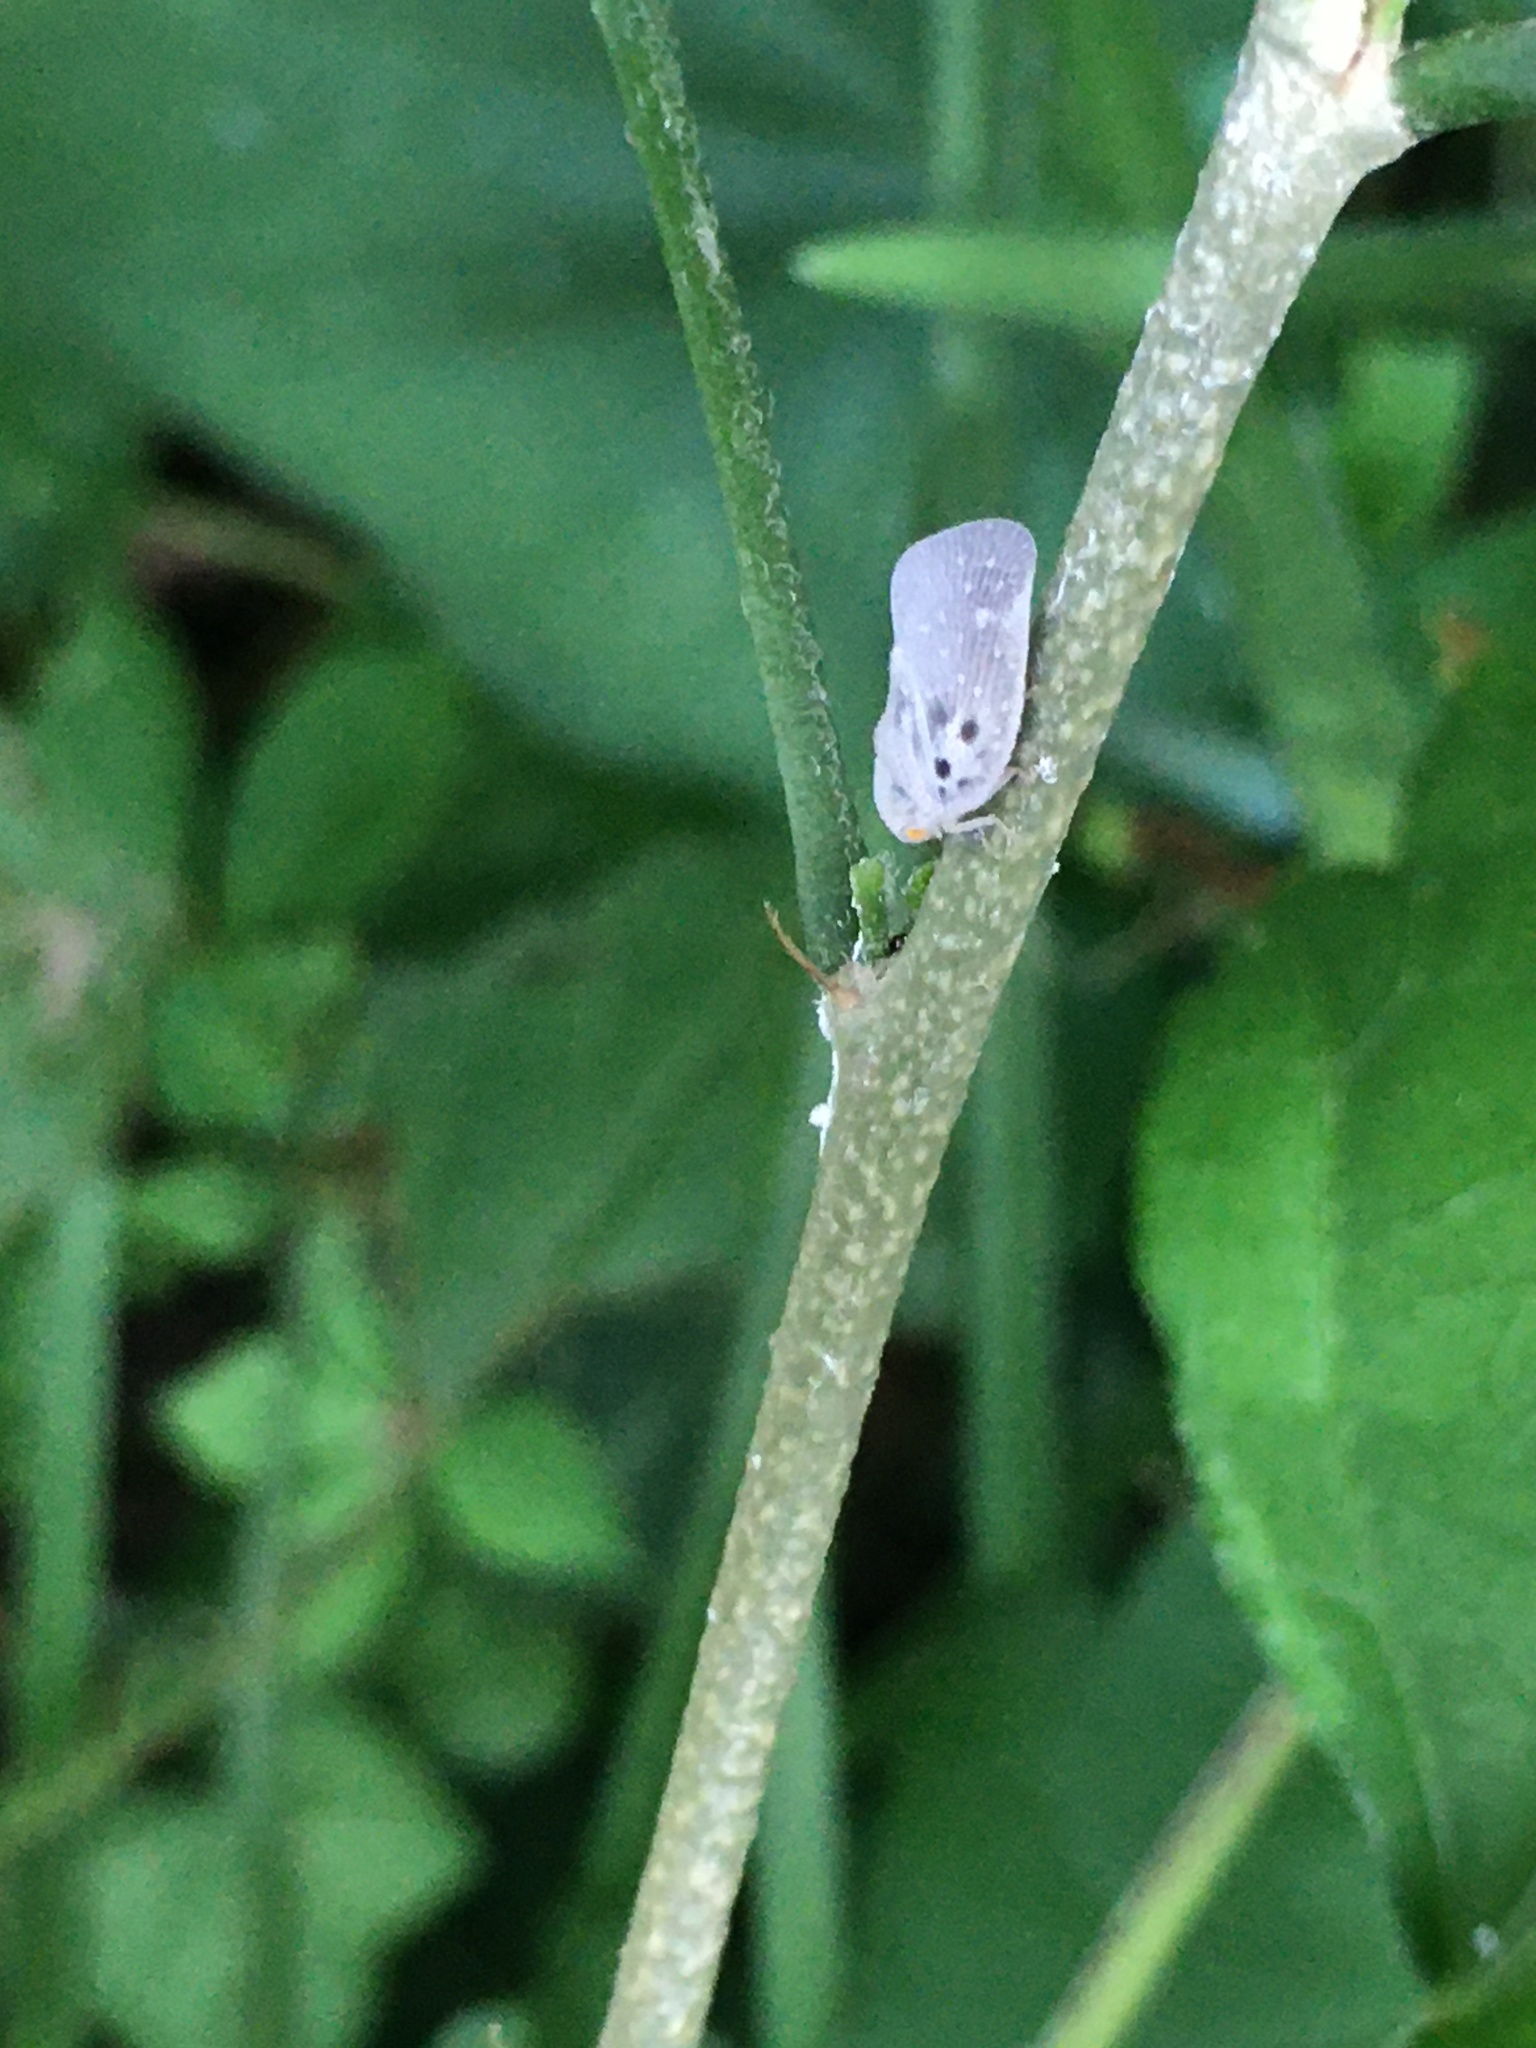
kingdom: Animalia
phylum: Arthropoda
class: Insecta
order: Hemiptera
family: Flatidae
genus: Metcalfa
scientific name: Metcalfa pruinosa
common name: Citrus flatid planthopper
